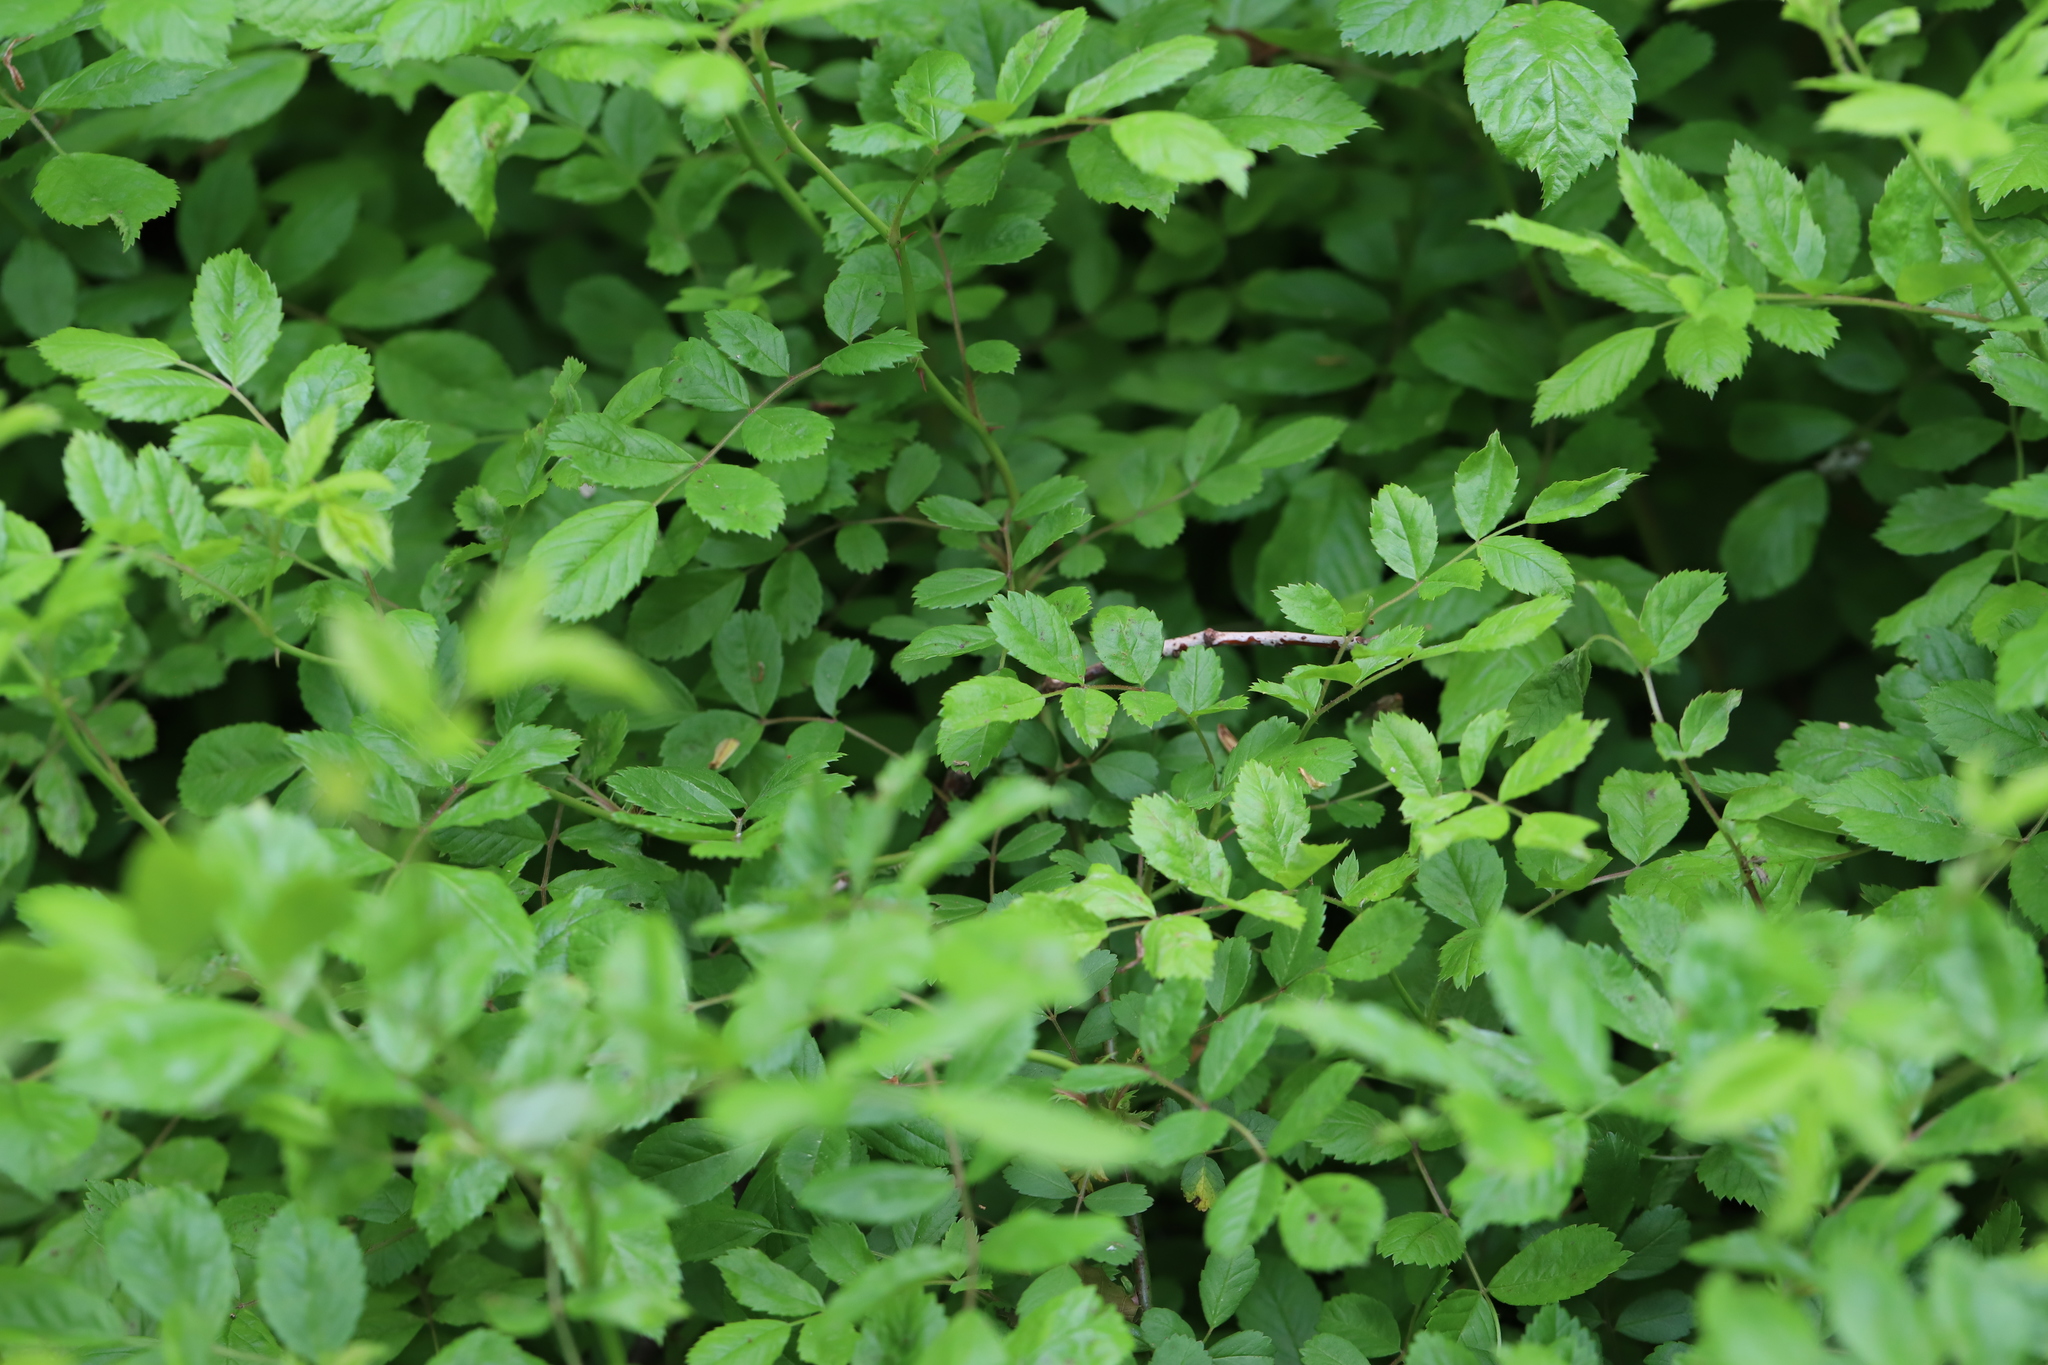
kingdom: Plantae
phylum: Tracheophyta
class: Magnoliopsida
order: Rosales
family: Rosaceae
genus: Rosa
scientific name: Rosa multiflora
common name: Multiflora rose
